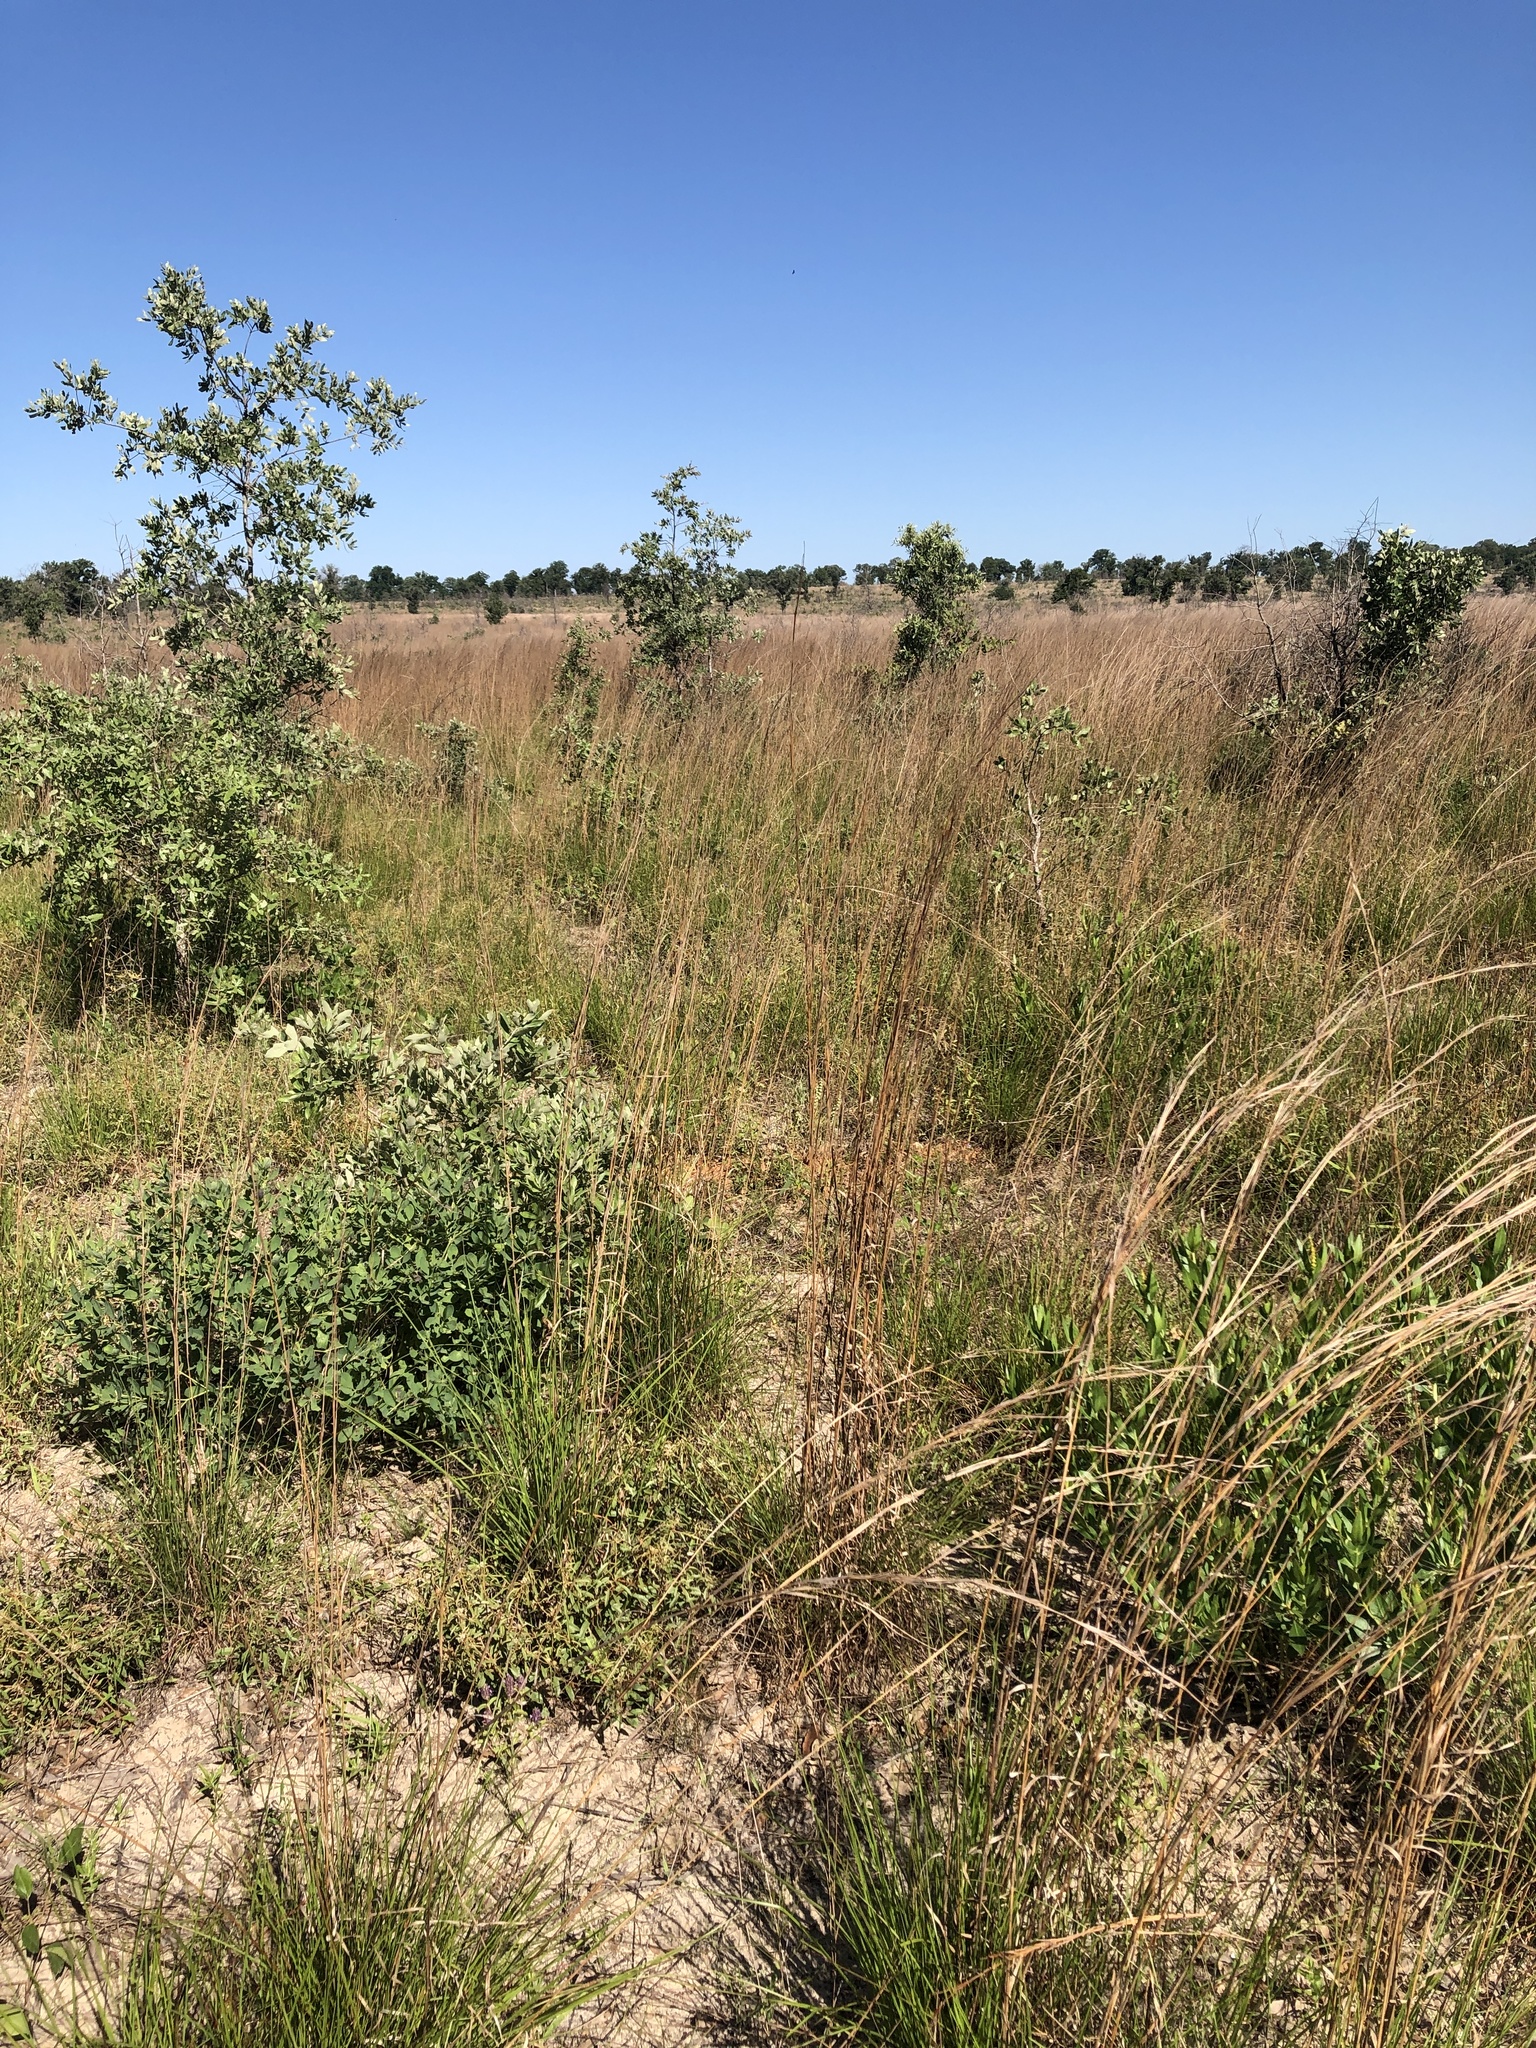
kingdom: Plantae
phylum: Tracheophyta
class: Liliopsida
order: Poales
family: Poaceae
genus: Schizachyrium
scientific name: Schizachyrium scoparium
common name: Little bluestem
